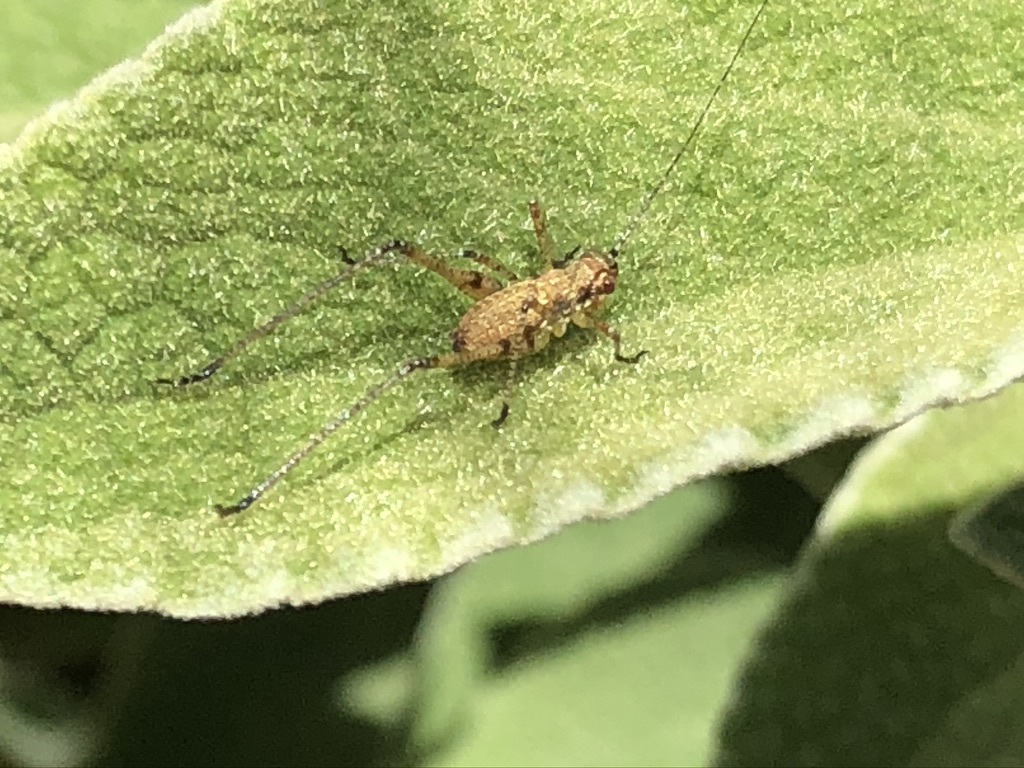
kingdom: Animalia
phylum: Arthropoda
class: Insecta
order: Orthoptera
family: Tettigoniidae
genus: Phaneroptera
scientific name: Phaneroptera nana
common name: Southern sickle bush-cricket
